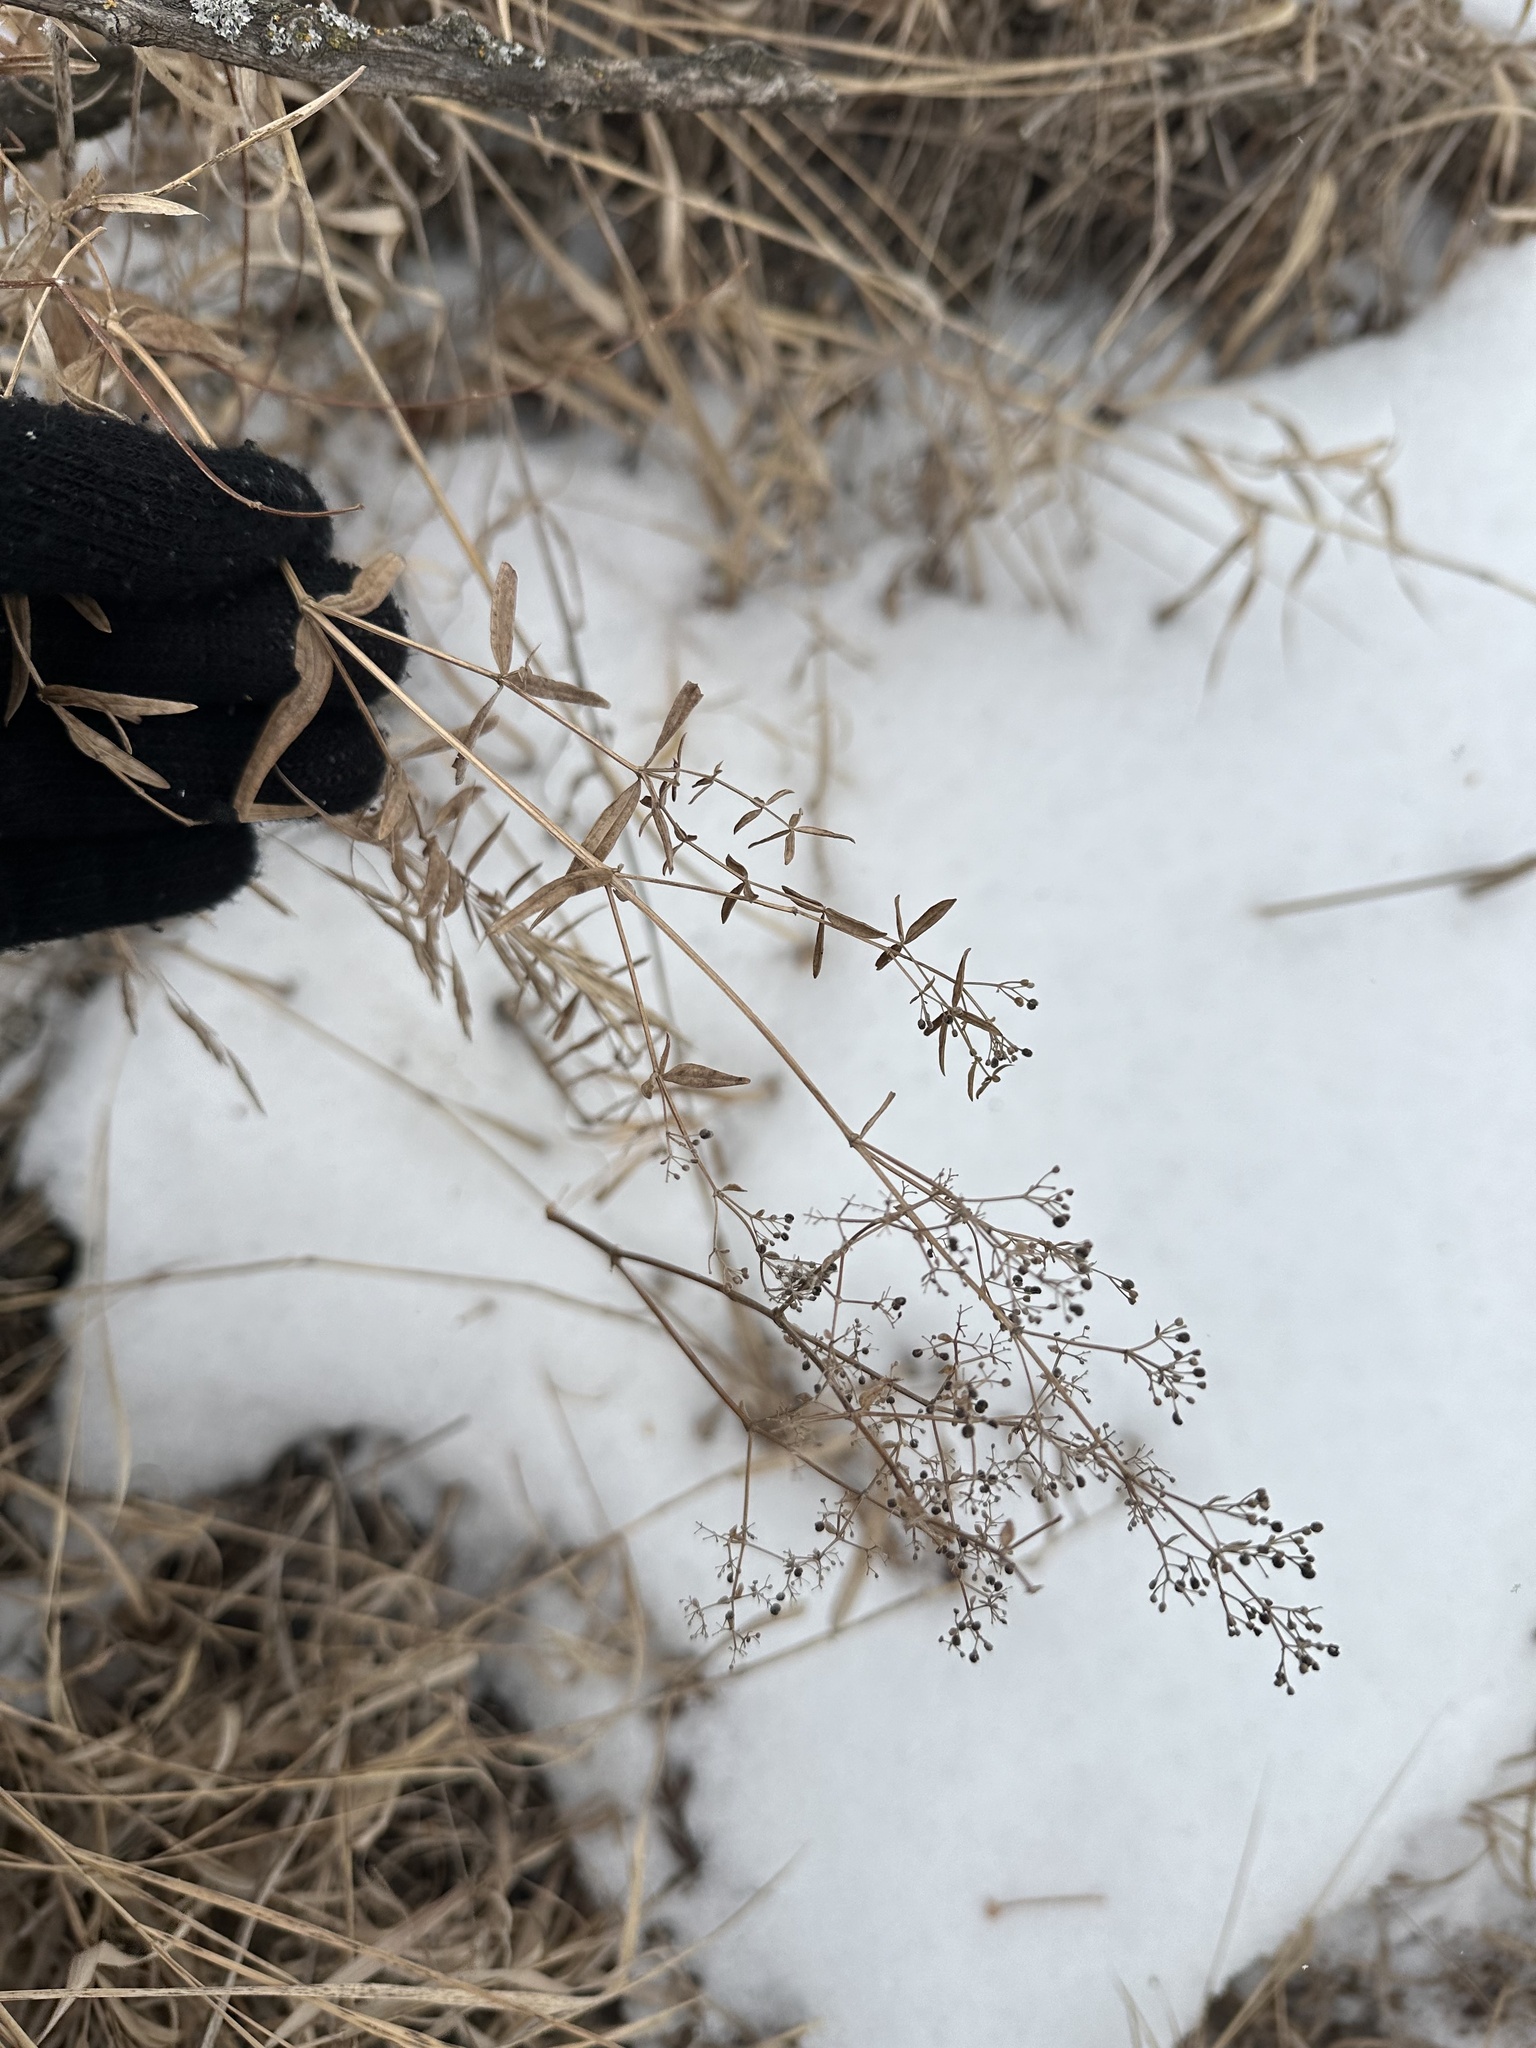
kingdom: Plantae
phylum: Tracheophyta
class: Magnoliopsida
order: Gentianales
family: Rubiaceae
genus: Galium
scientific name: Galium boreale
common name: Northern bedstraw
